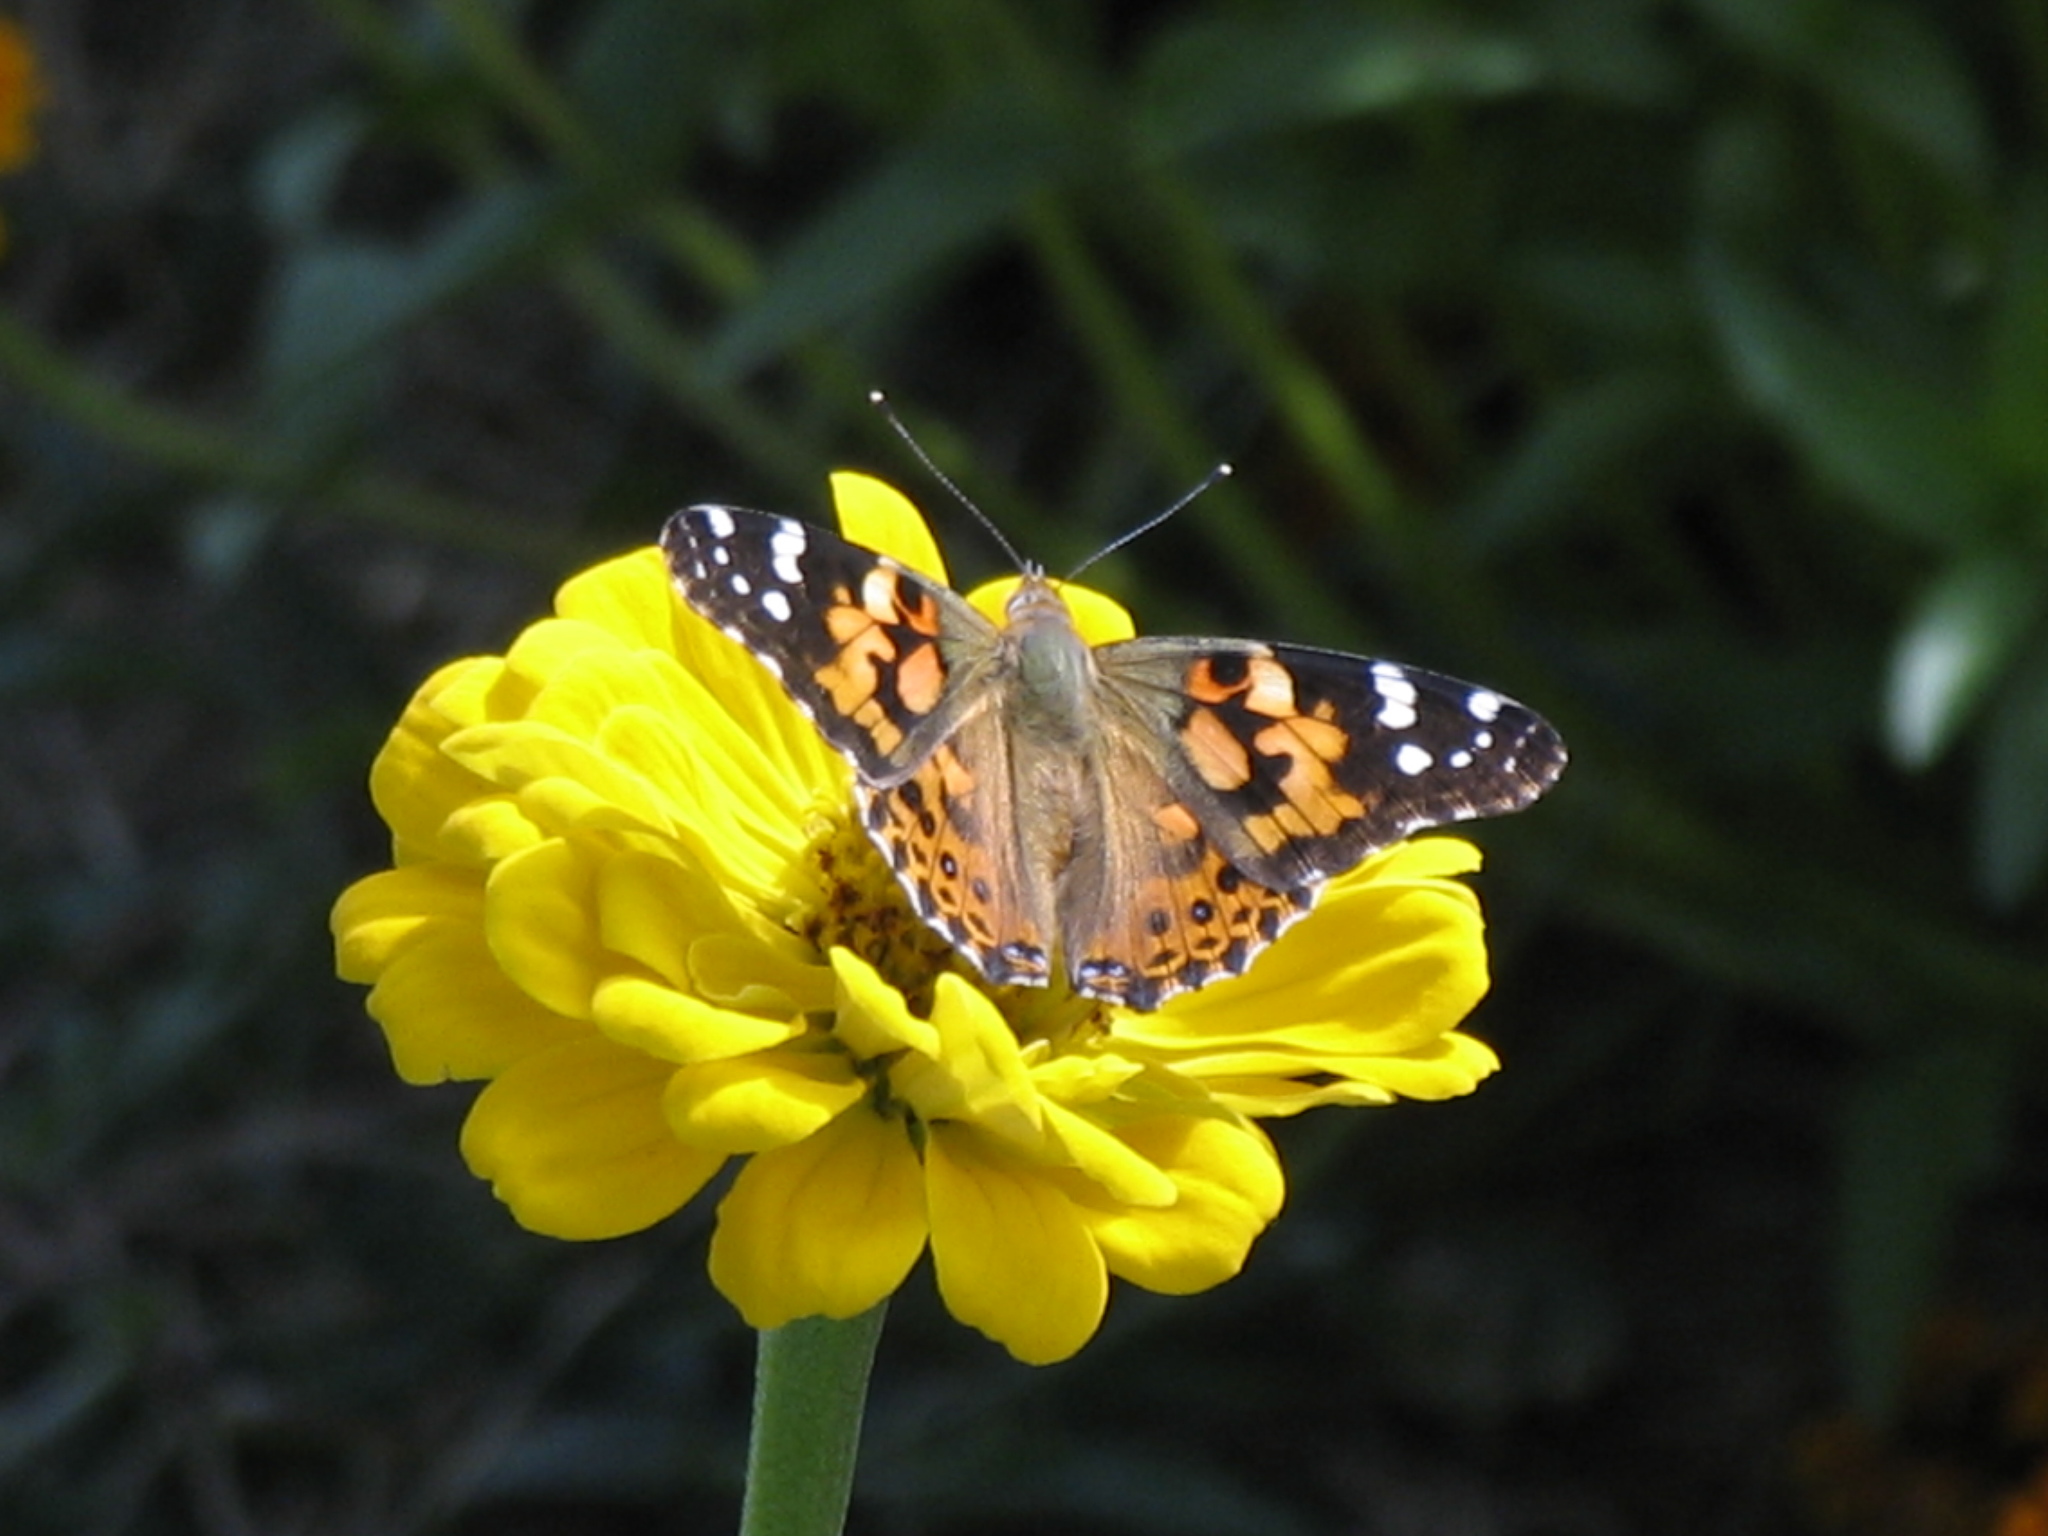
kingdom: Animalia
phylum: Arthropoda
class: Insecta
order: Lepidoptera
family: Nymphalidae
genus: Vanessa
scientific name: Vanessa cardui
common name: Painted lady
